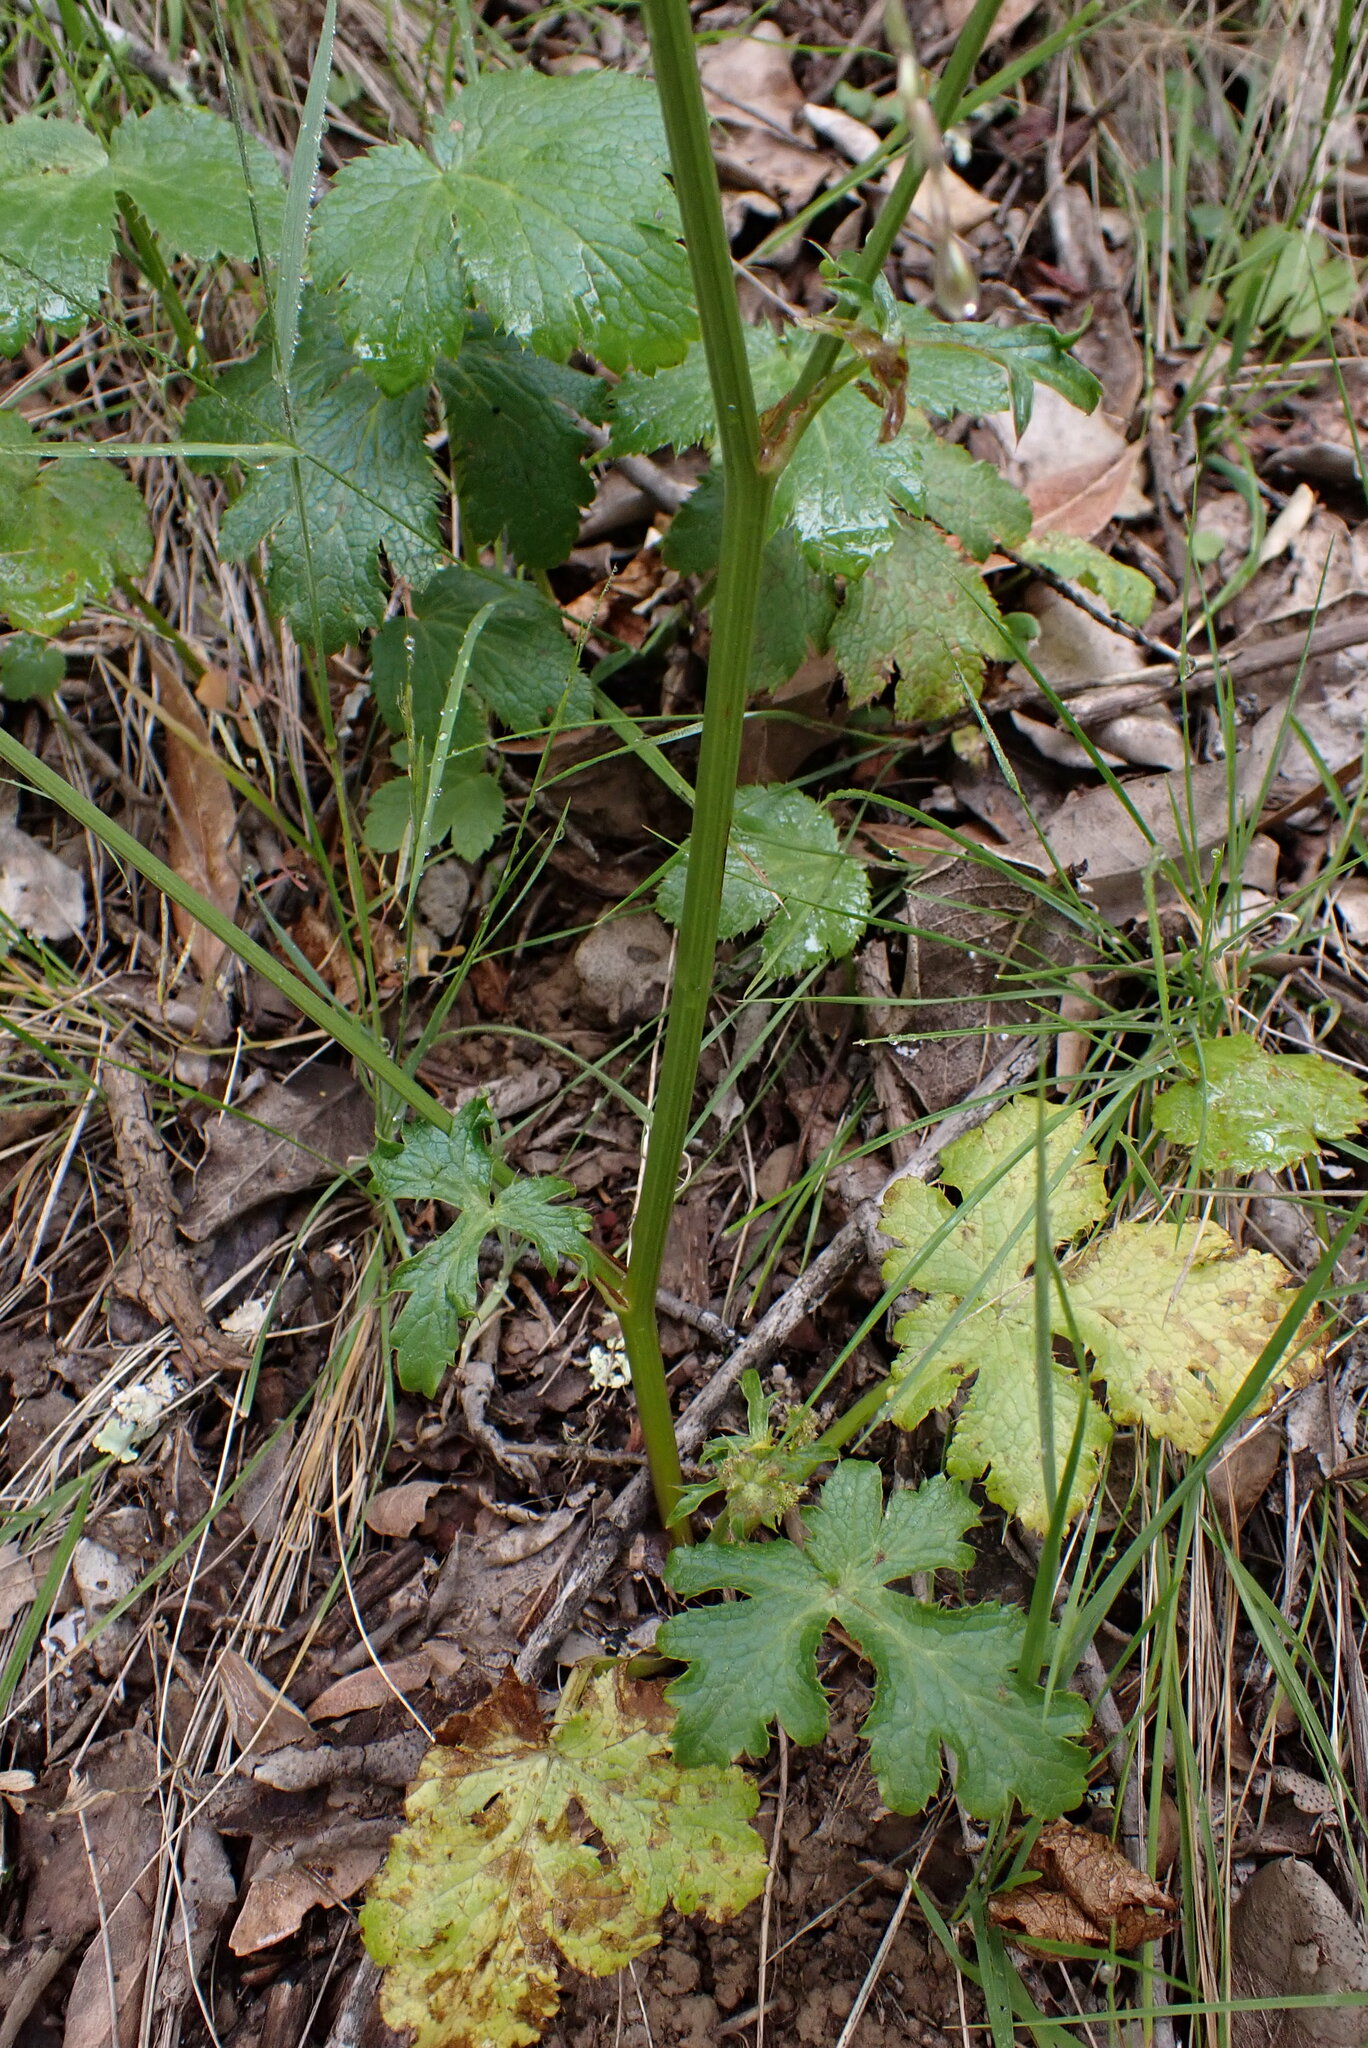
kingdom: Plantae
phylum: Tracheophyta
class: Magnoliopsida
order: Apiales
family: Apiaceae
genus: Sanicula
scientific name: Sanicula crassicaulis
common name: Western snakeroot
